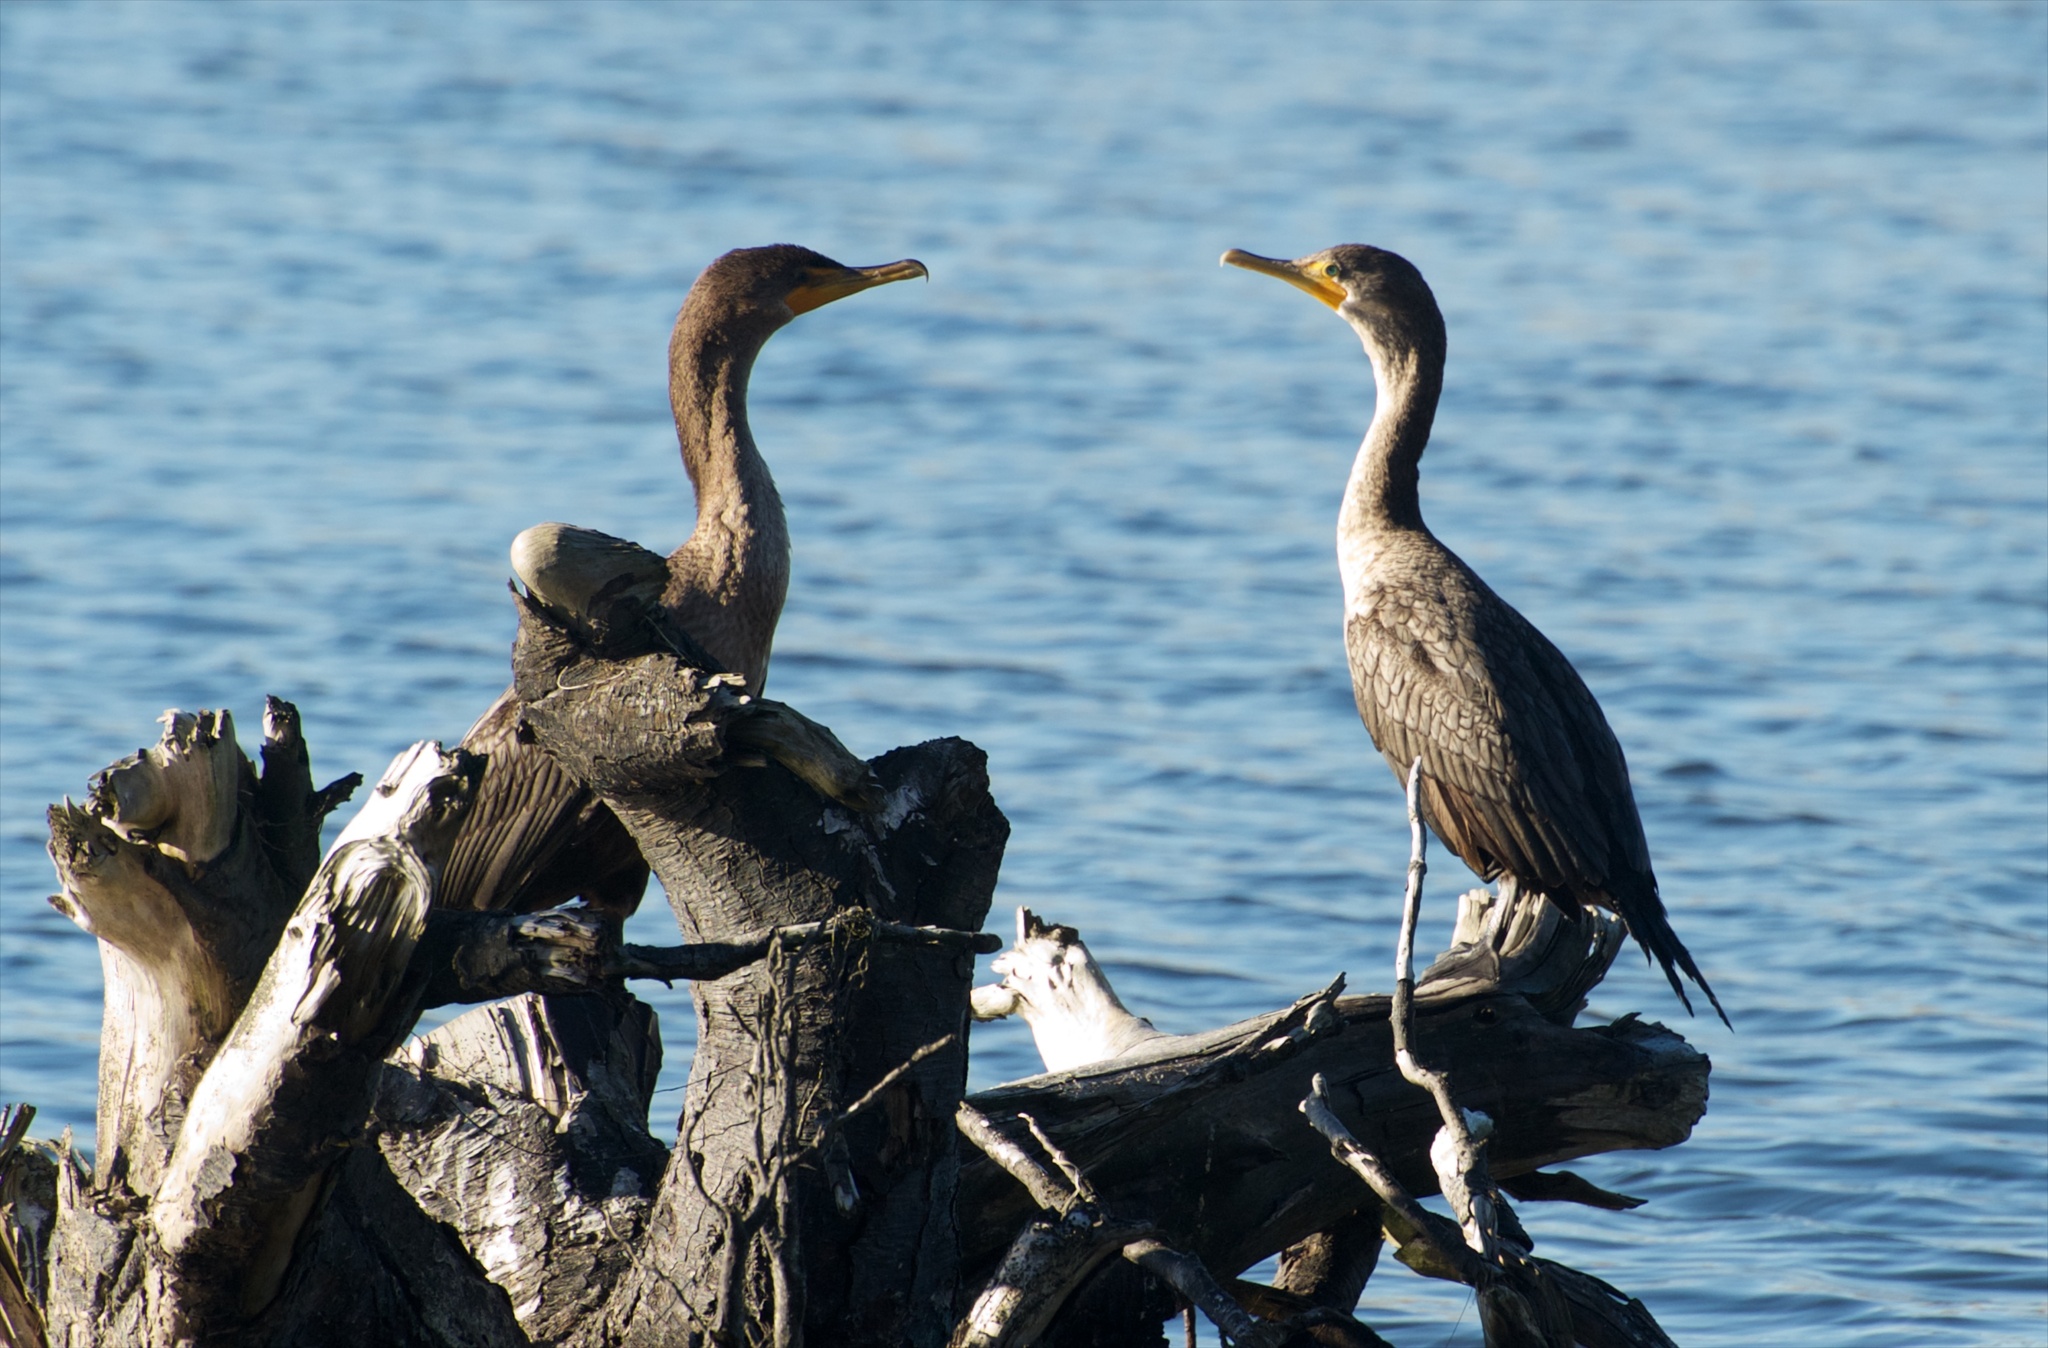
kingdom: Animalia
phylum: Chordata
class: Aves
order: Suliformes
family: Phalacrocoracidae
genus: Phalacrocorax
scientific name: Phalacrocorax auritus
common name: Double-crested cormorant
